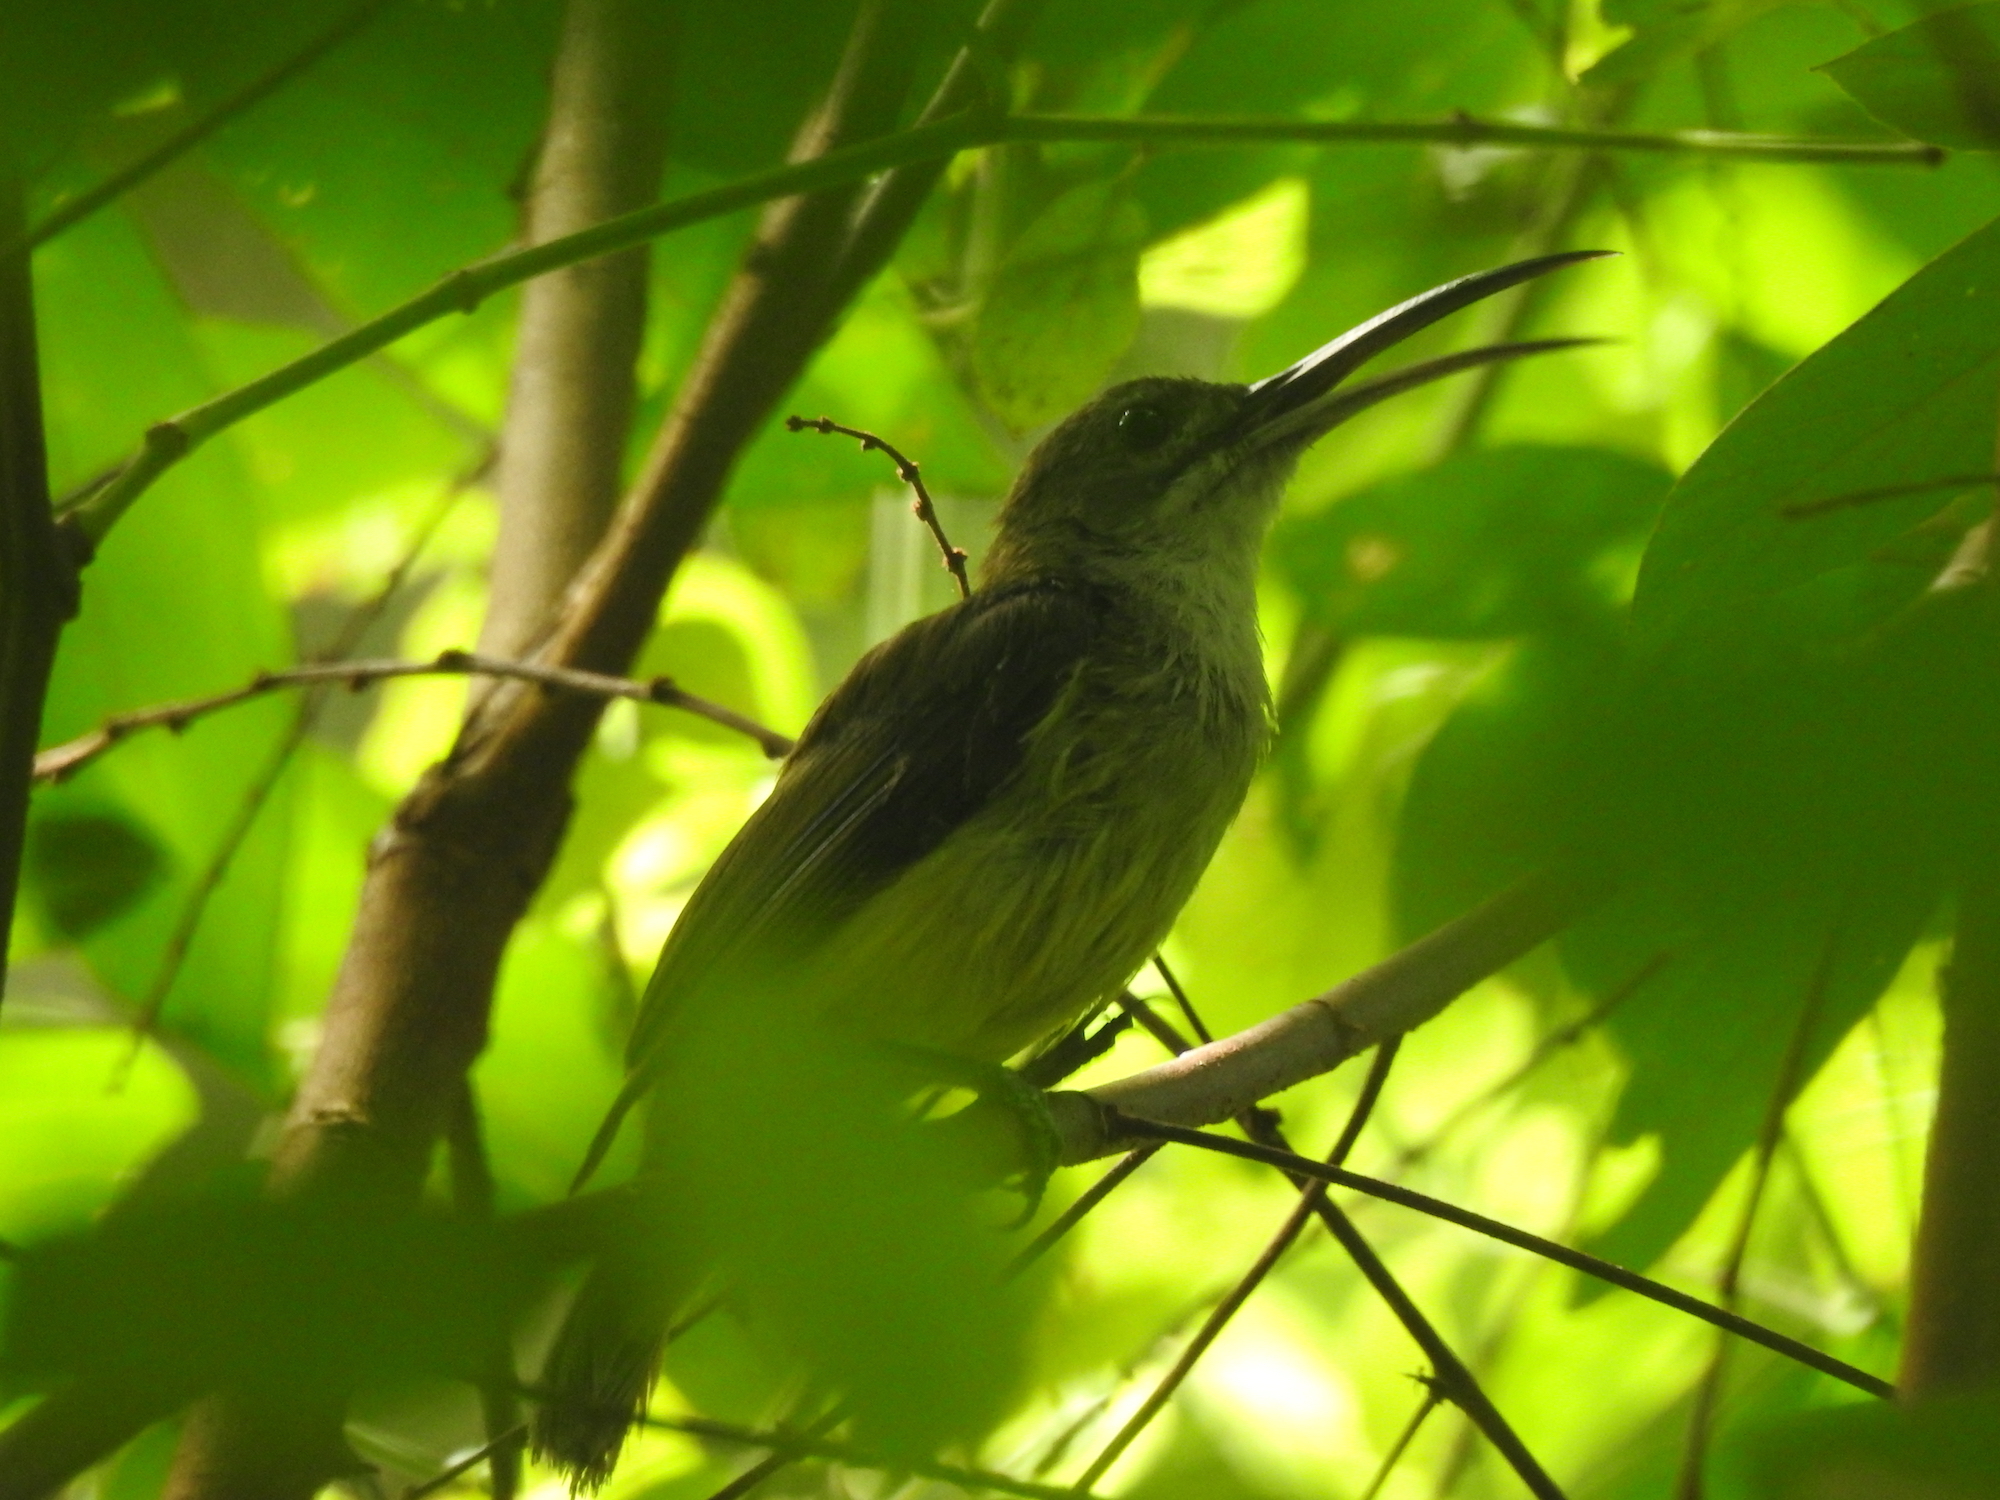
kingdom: Animalia
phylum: Chordata
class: Aves
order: Passeriformes
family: Nectariniidae
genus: Arachnothera
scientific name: Arachnothera longirostra
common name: Little spiderhunter
